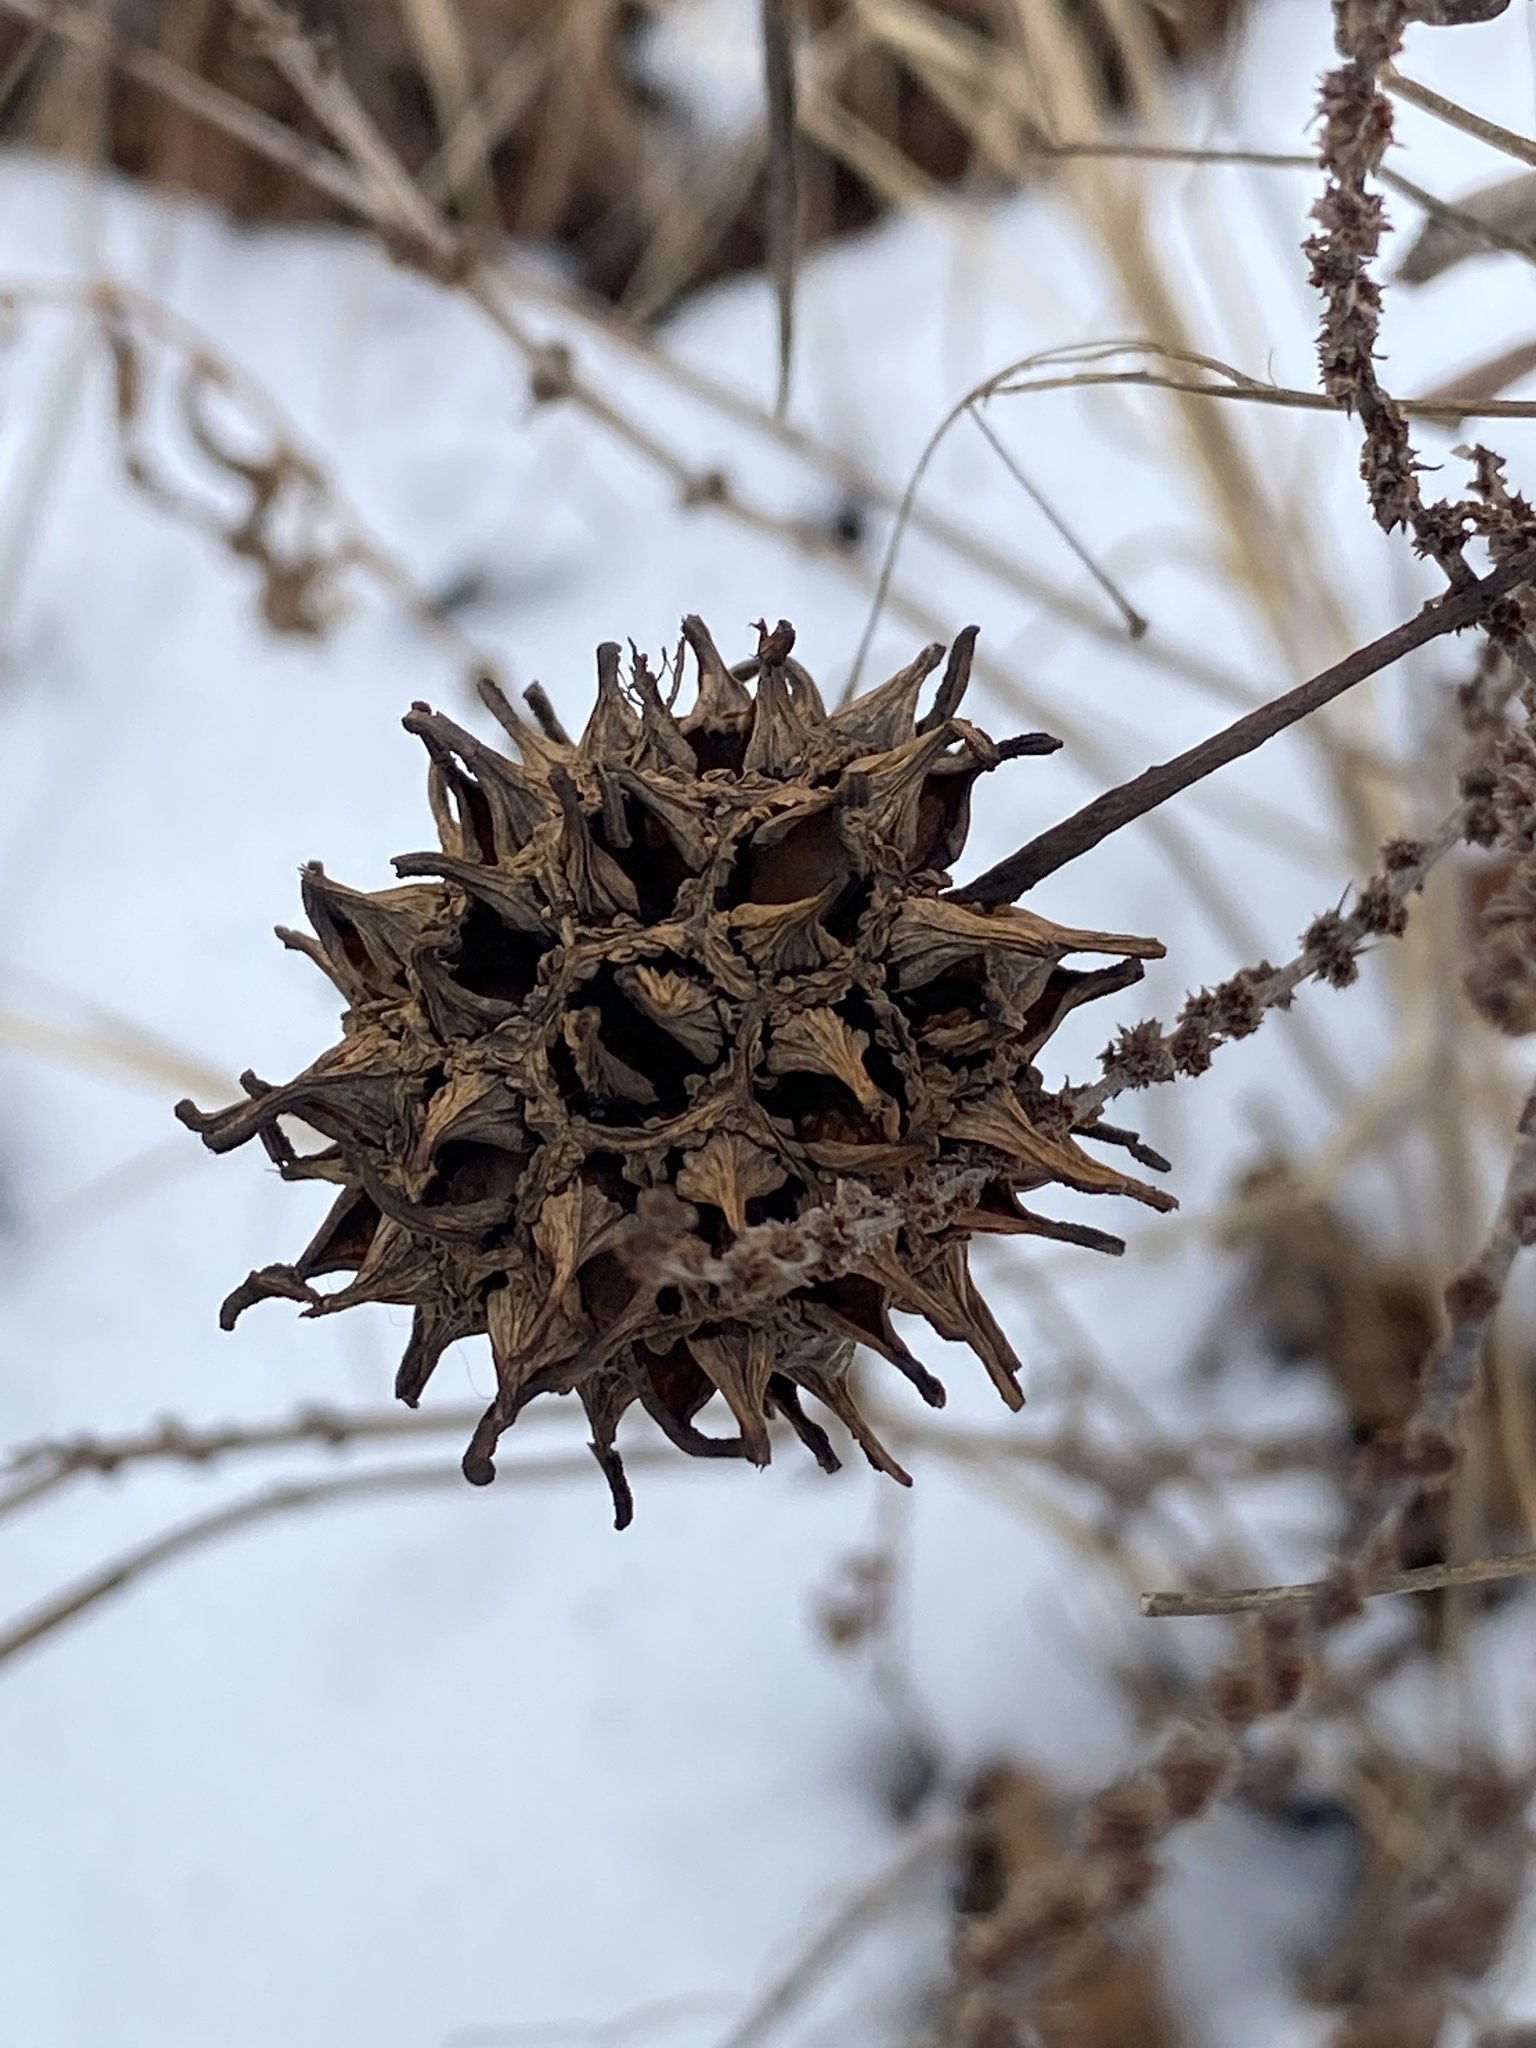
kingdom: Plantae
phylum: Tracheophyta
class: Magnoliopsida
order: Saxifragales
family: Altingiaceae
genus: Liquidambar
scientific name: Liquidambar styraciflua
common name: Sweet gum
